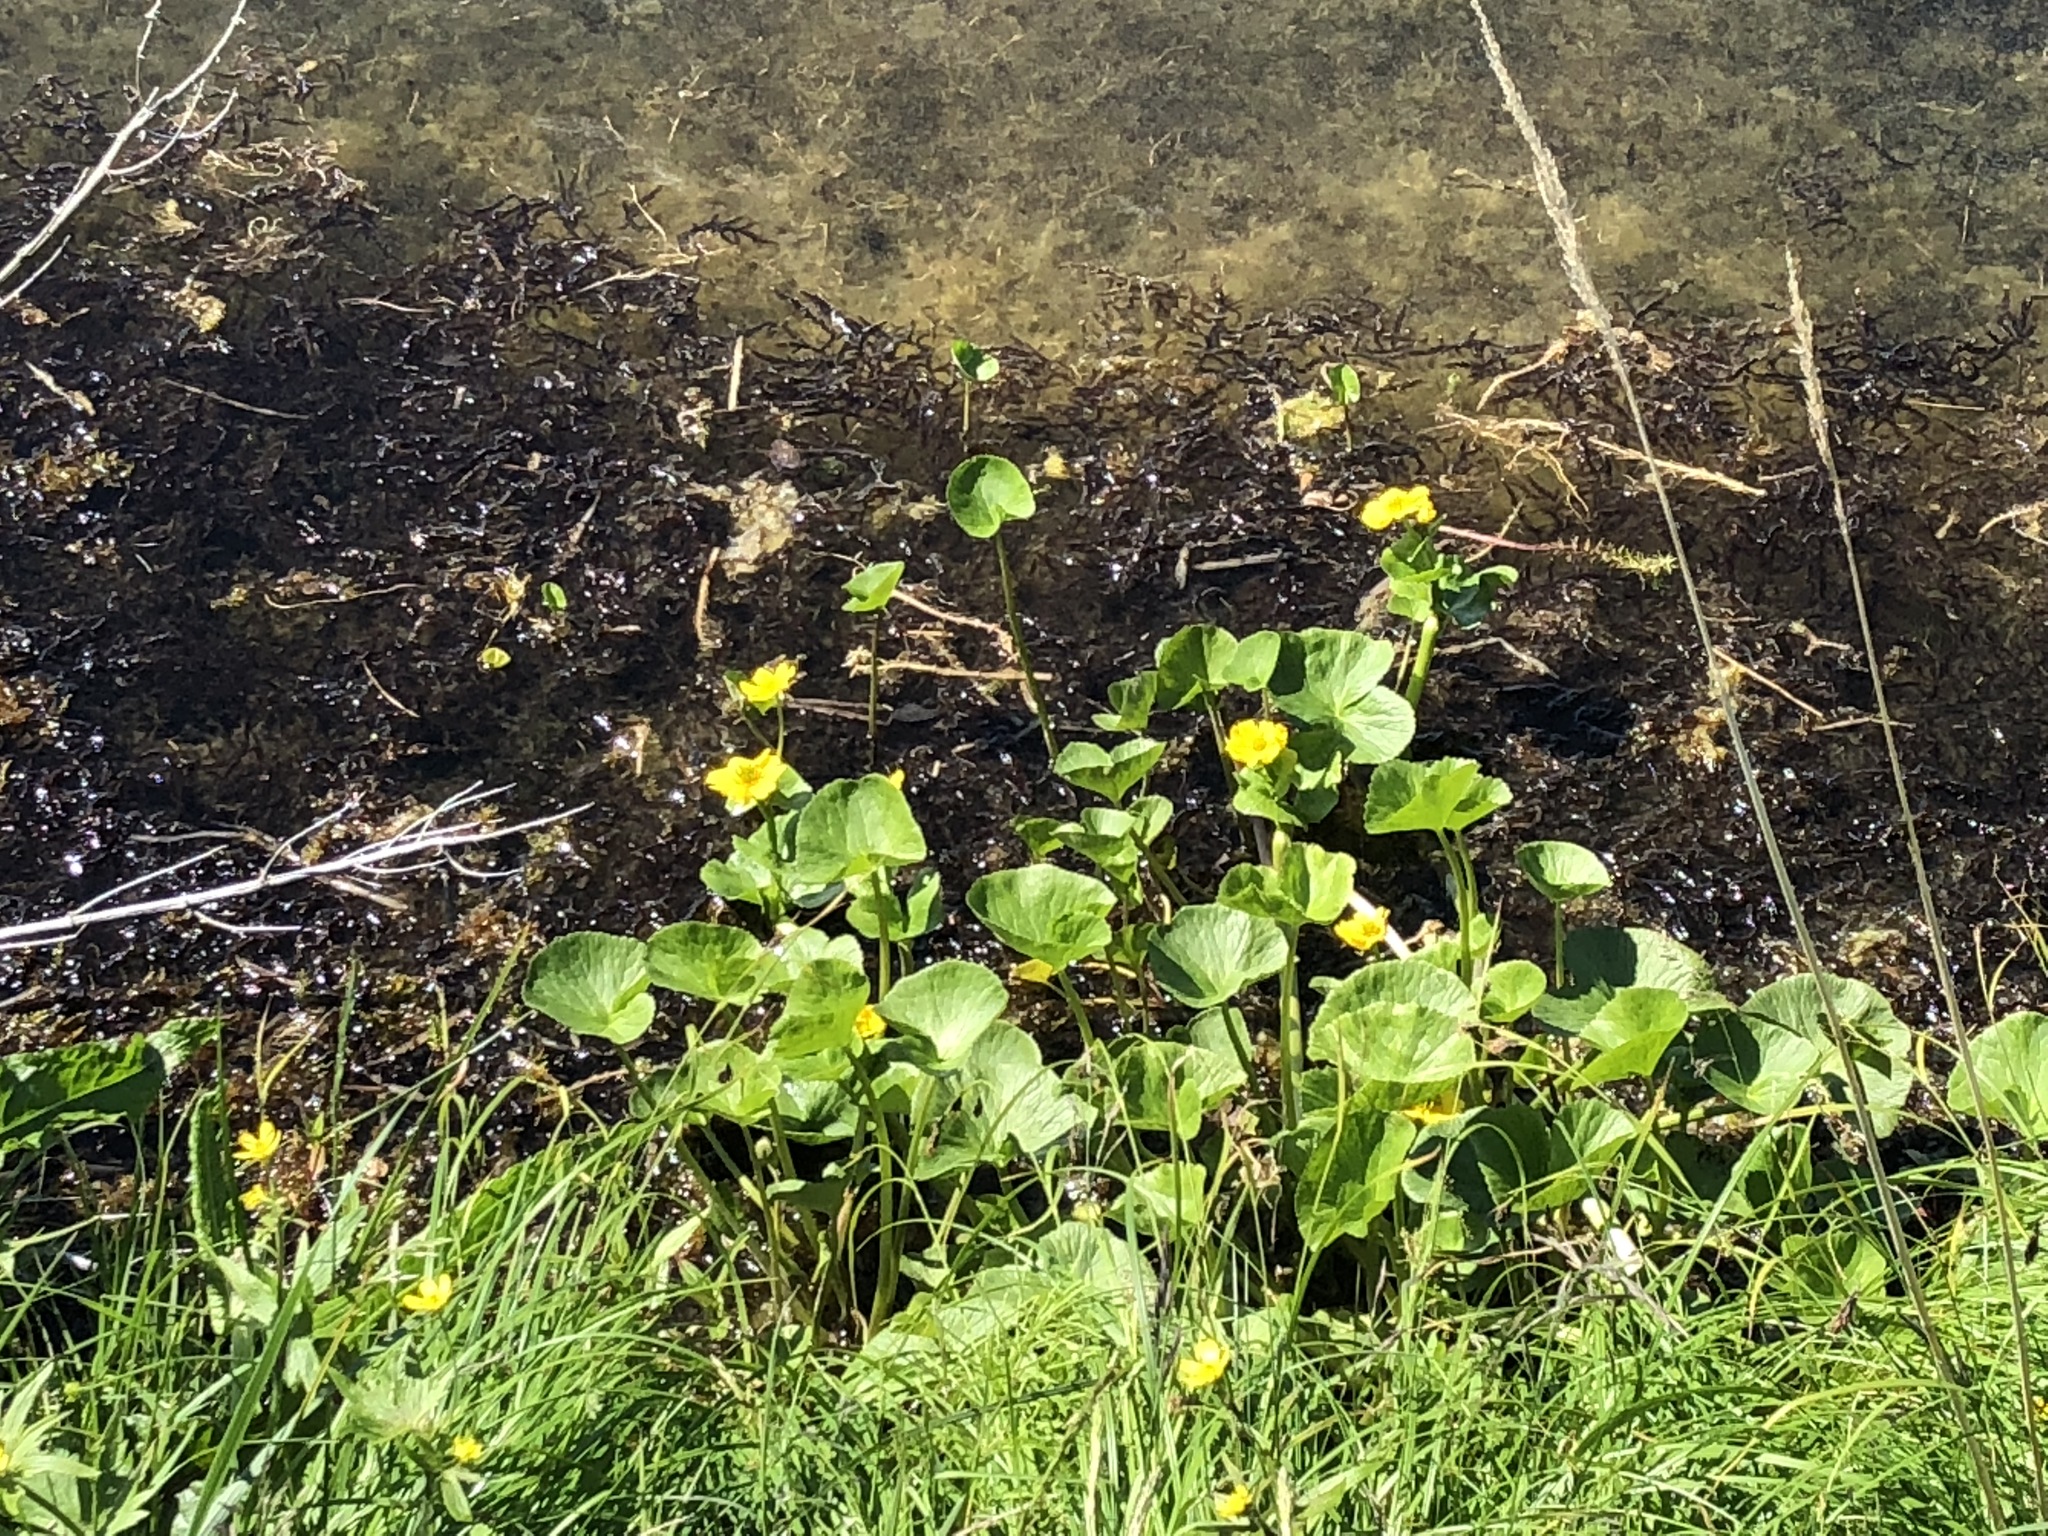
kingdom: Plantae
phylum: Tracheophyta
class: Magnoliopsida
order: Ranunculales
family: Ranunculaceae
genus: Caltha
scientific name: Caltha palustris
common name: Marsh marigold
